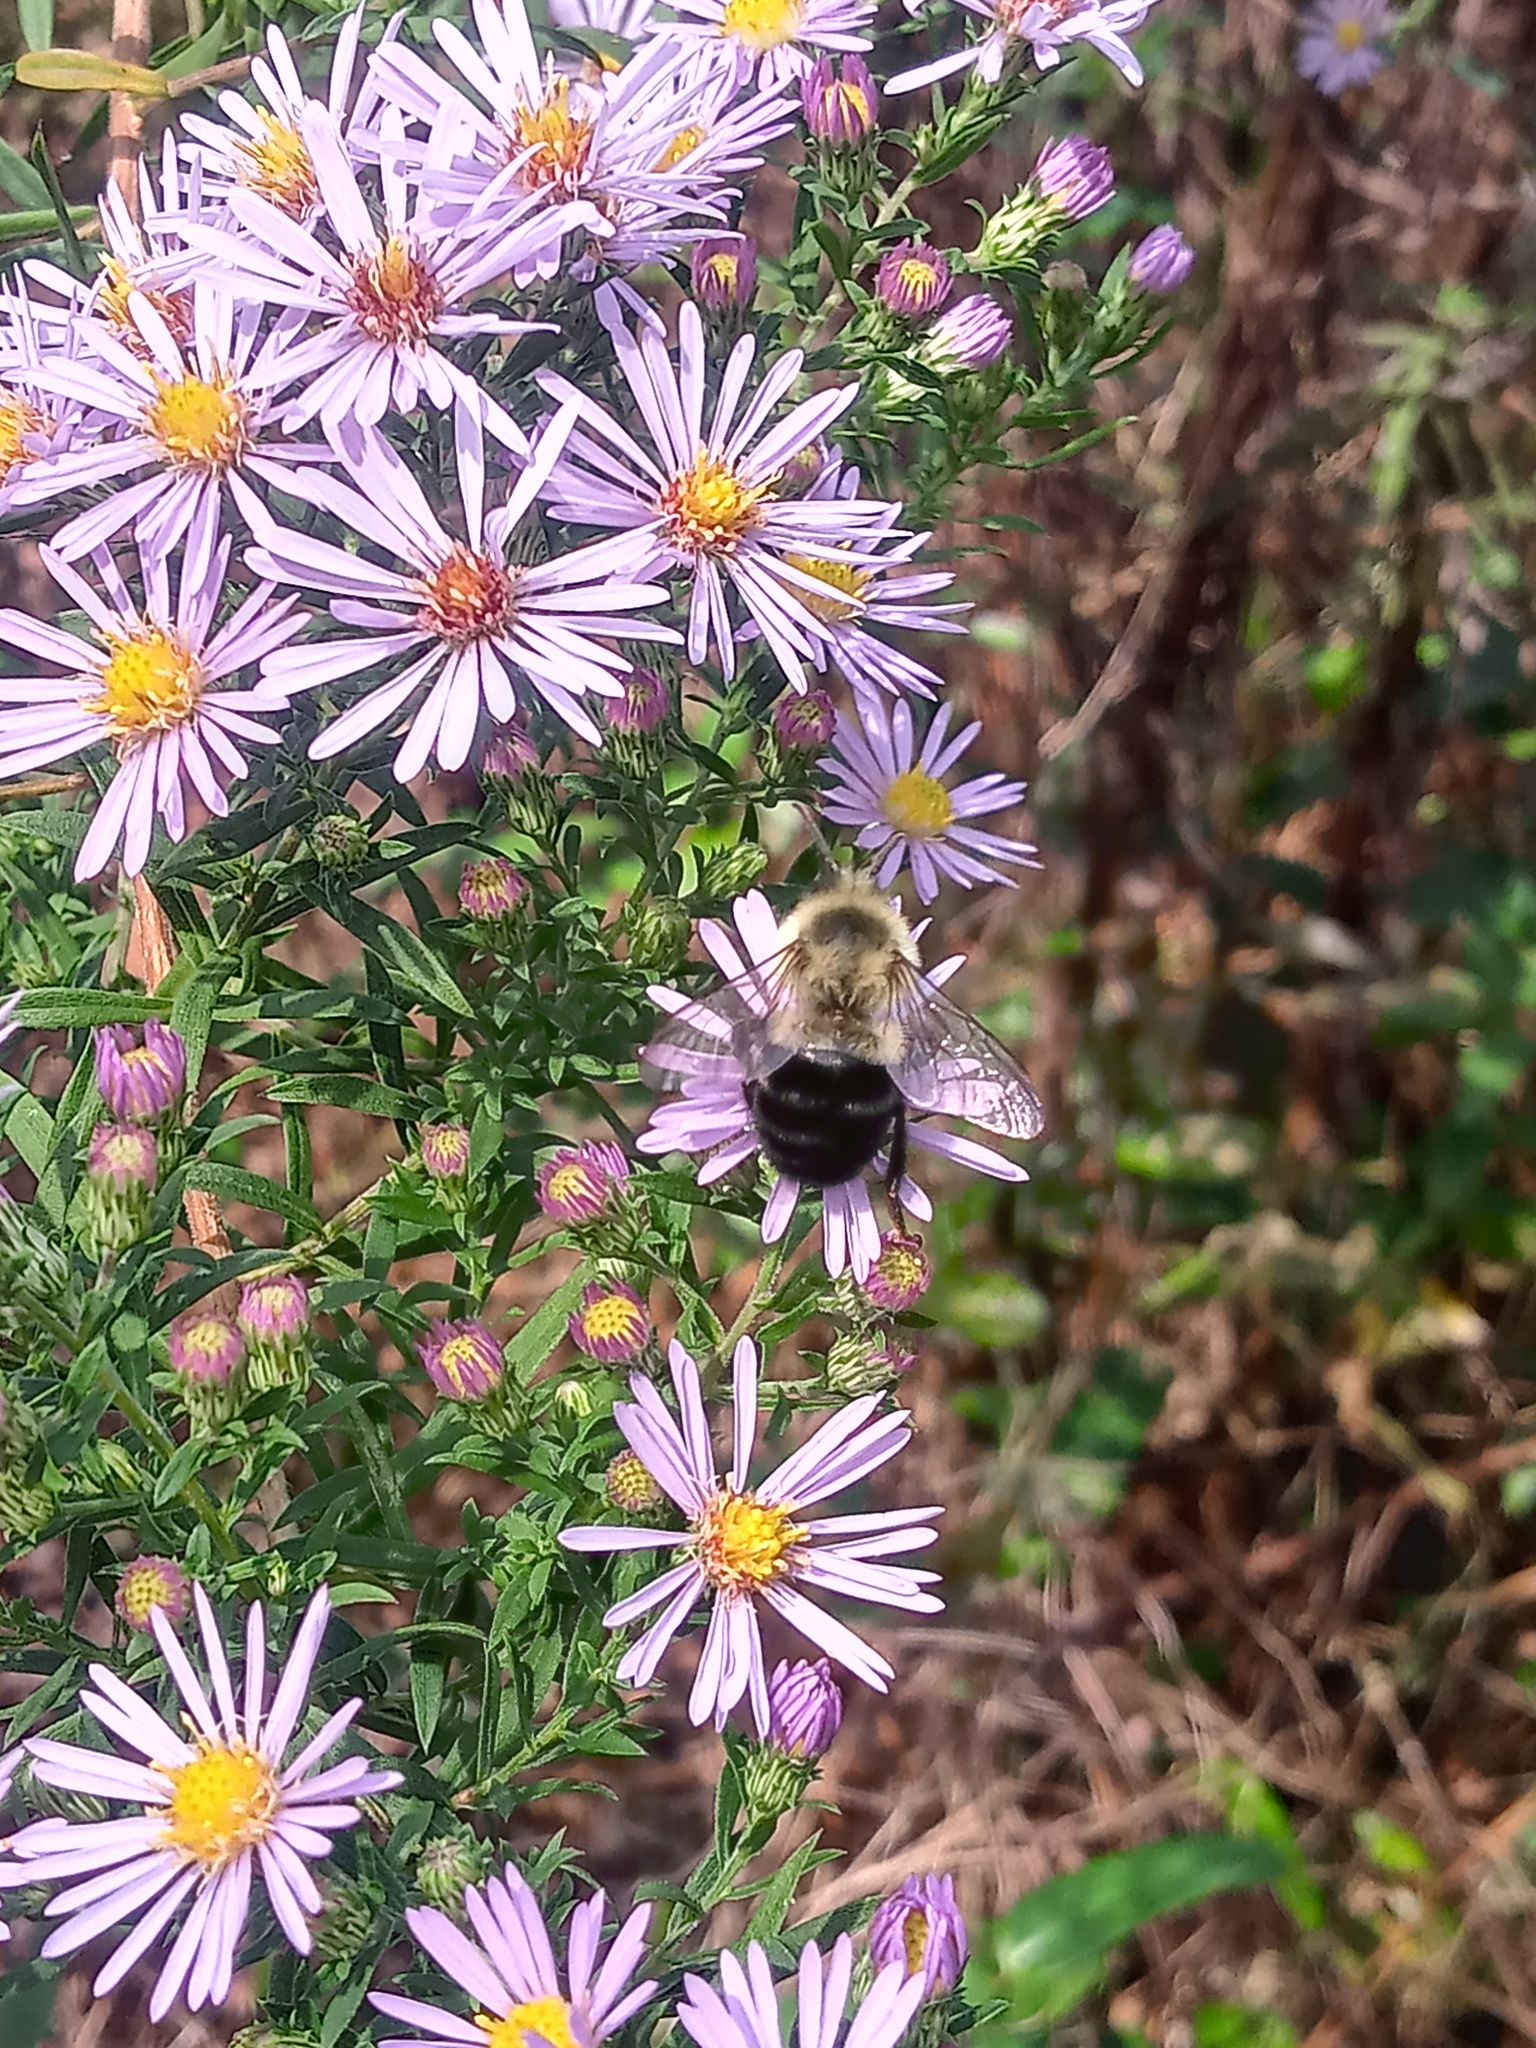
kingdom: Animalia
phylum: Arthropoda
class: Insecta
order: Hymenoptera
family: Apidae
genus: Bombus
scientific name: Bombus impatiens
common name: Common eastern bumble bee
